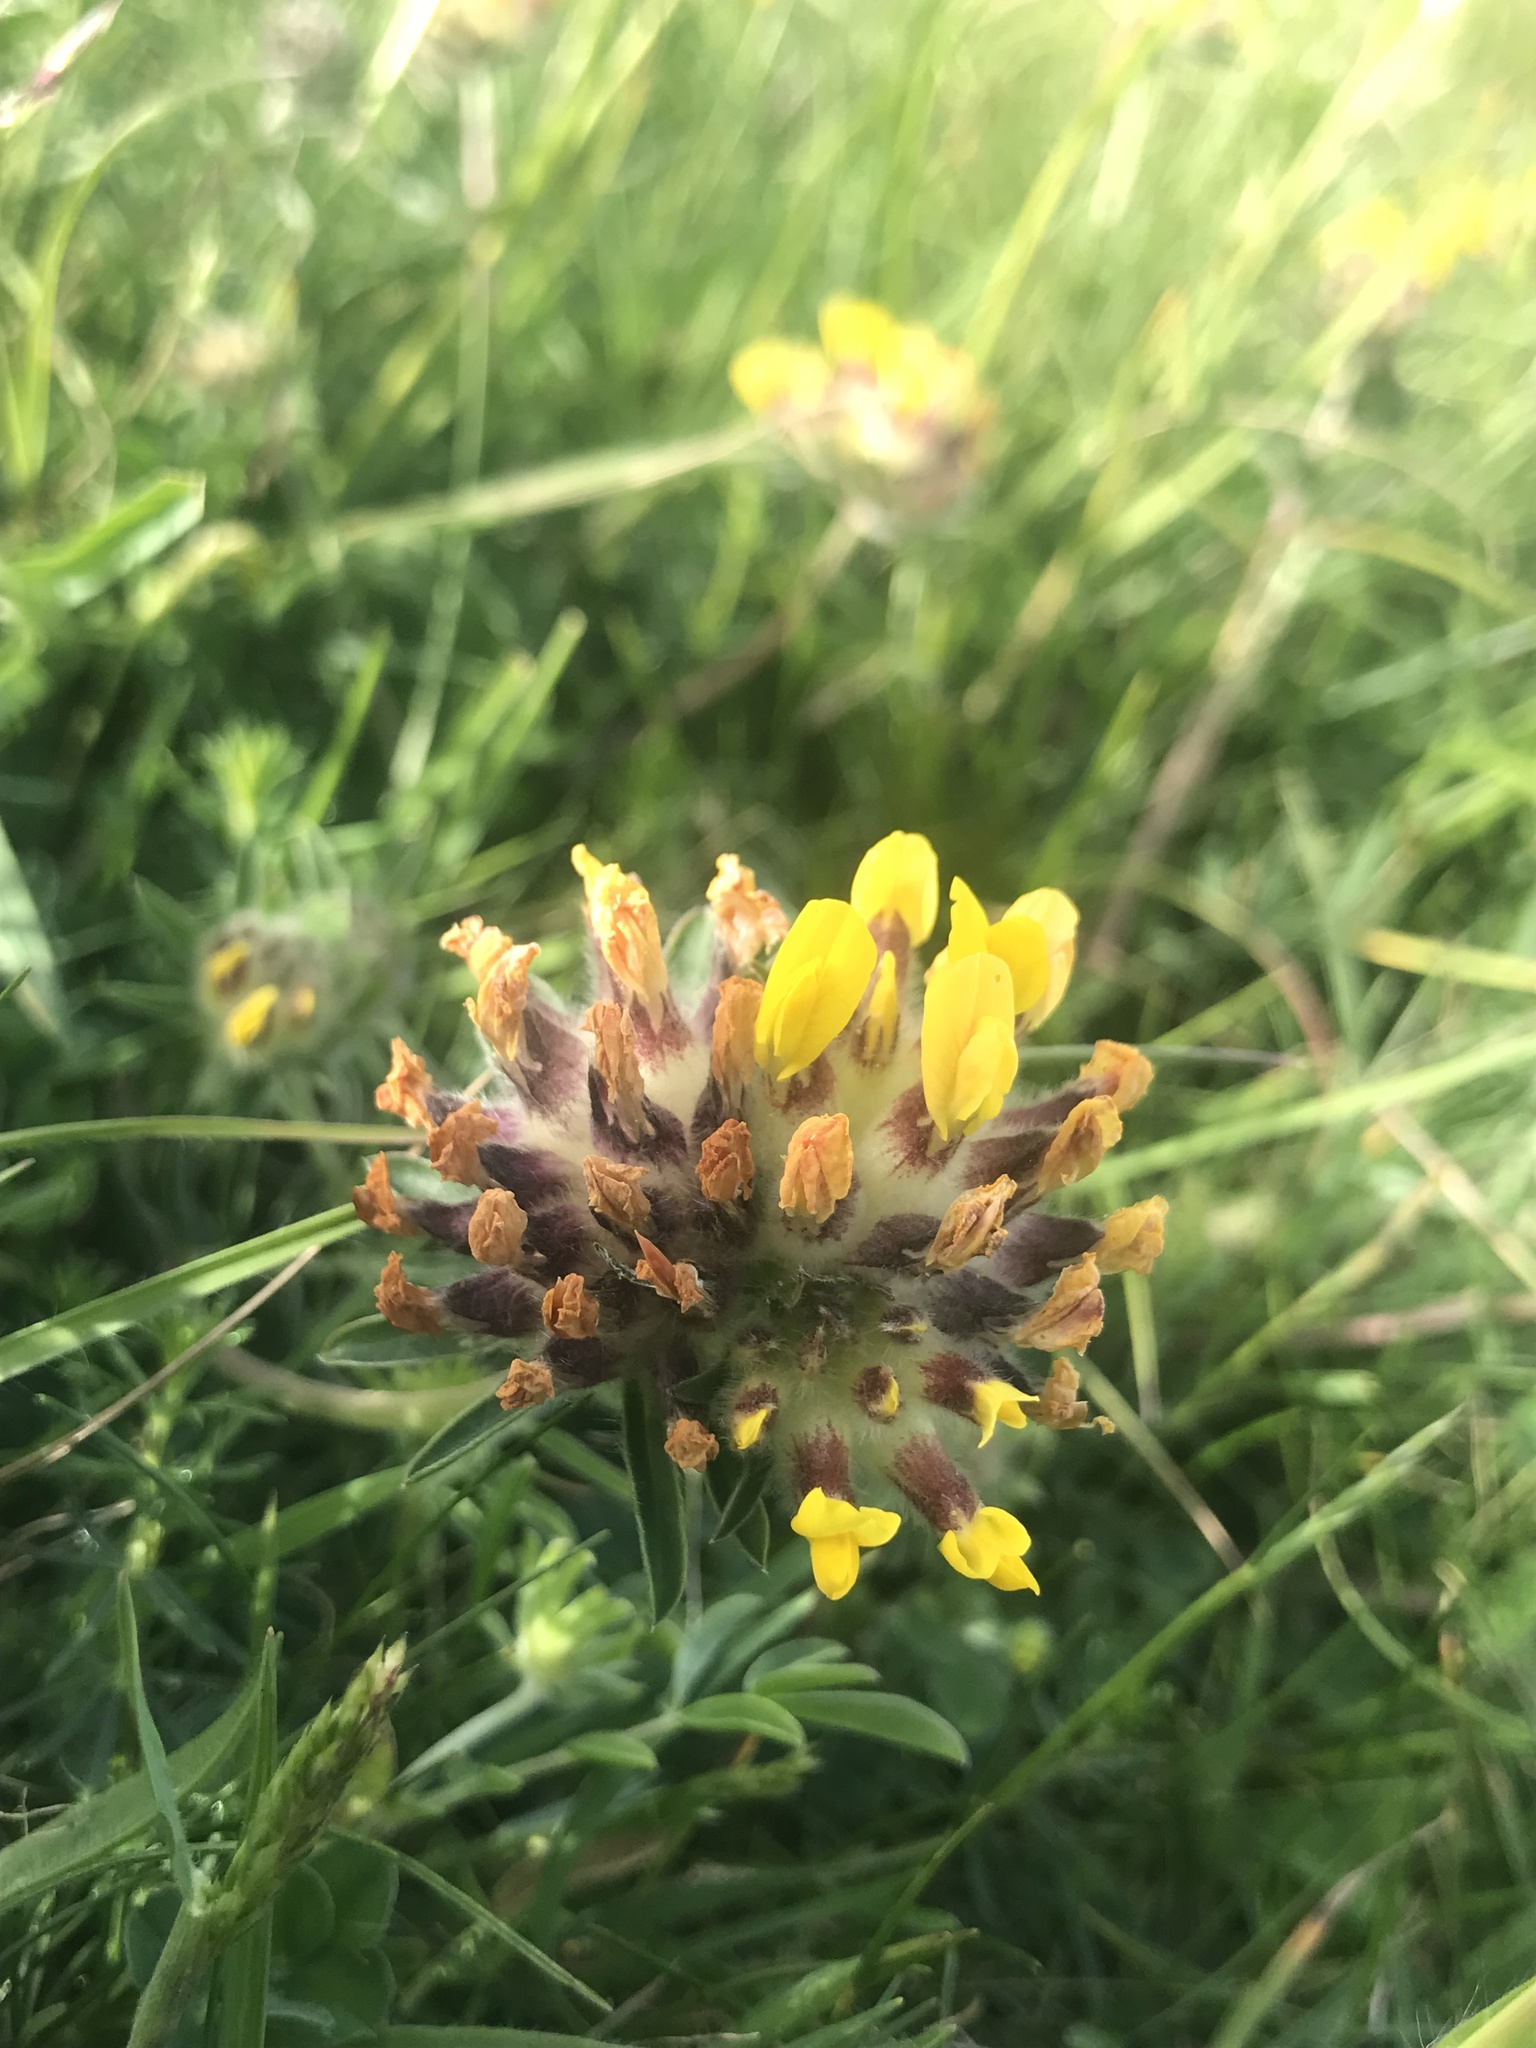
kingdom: Plantae
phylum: Tracheophyta
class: Magnoliopsida
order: Fabales
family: Fabaceae
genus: Anthyllis
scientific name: Anthyllis vulneraria
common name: Kidney vetch
